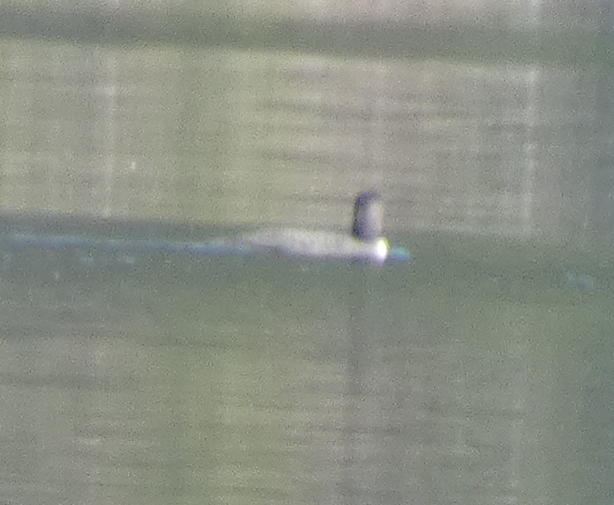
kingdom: Animalia
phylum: Chordata
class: Aves
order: Gaviiformes
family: Gaviidae
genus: Gavia
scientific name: Gavia immer
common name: Common loon
